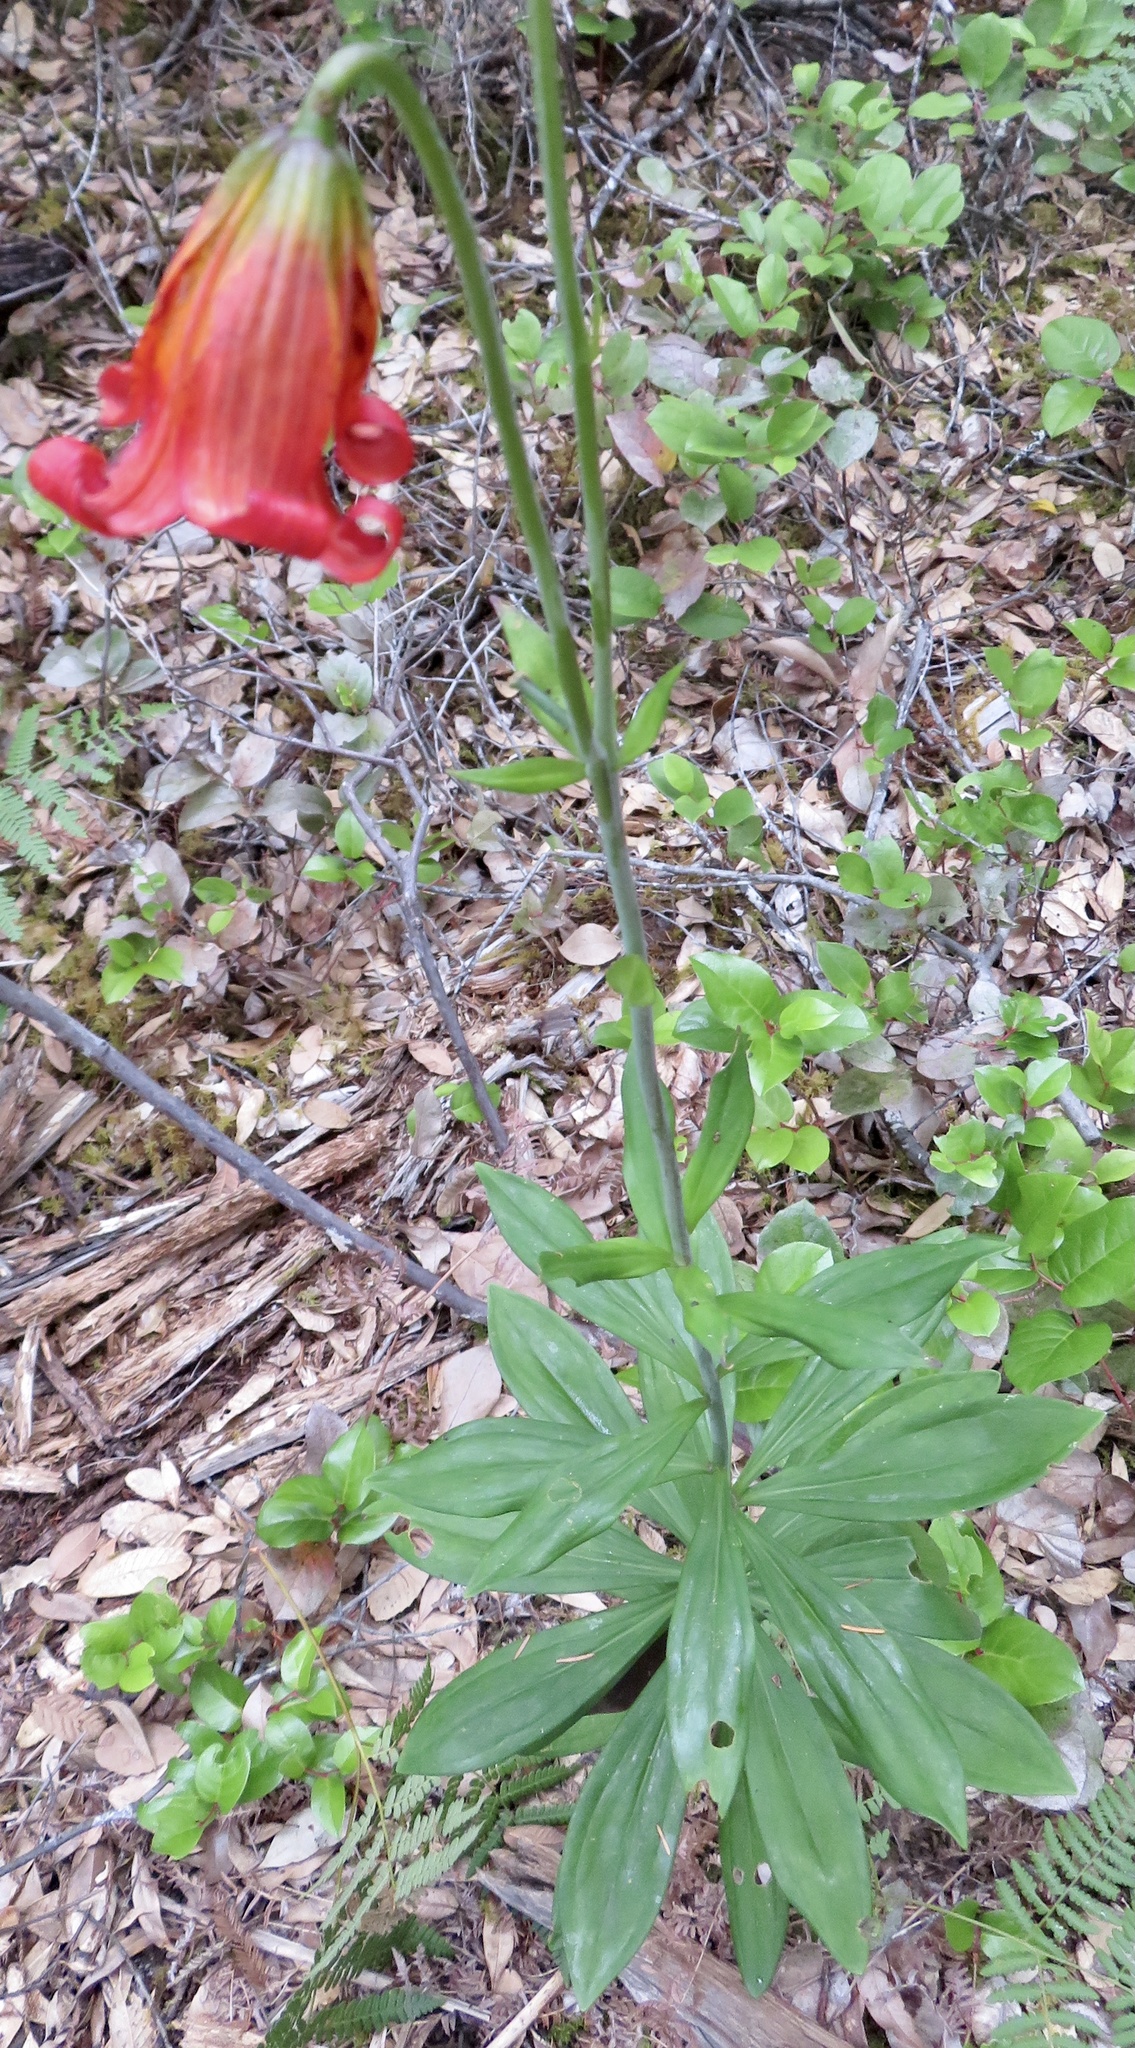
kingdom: Plantae
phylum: Tracheophyta
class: Liliopsida
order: Liliales
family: Liliaceae
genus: Lilium
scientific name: Lilium maritimum
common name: Coastal lily
